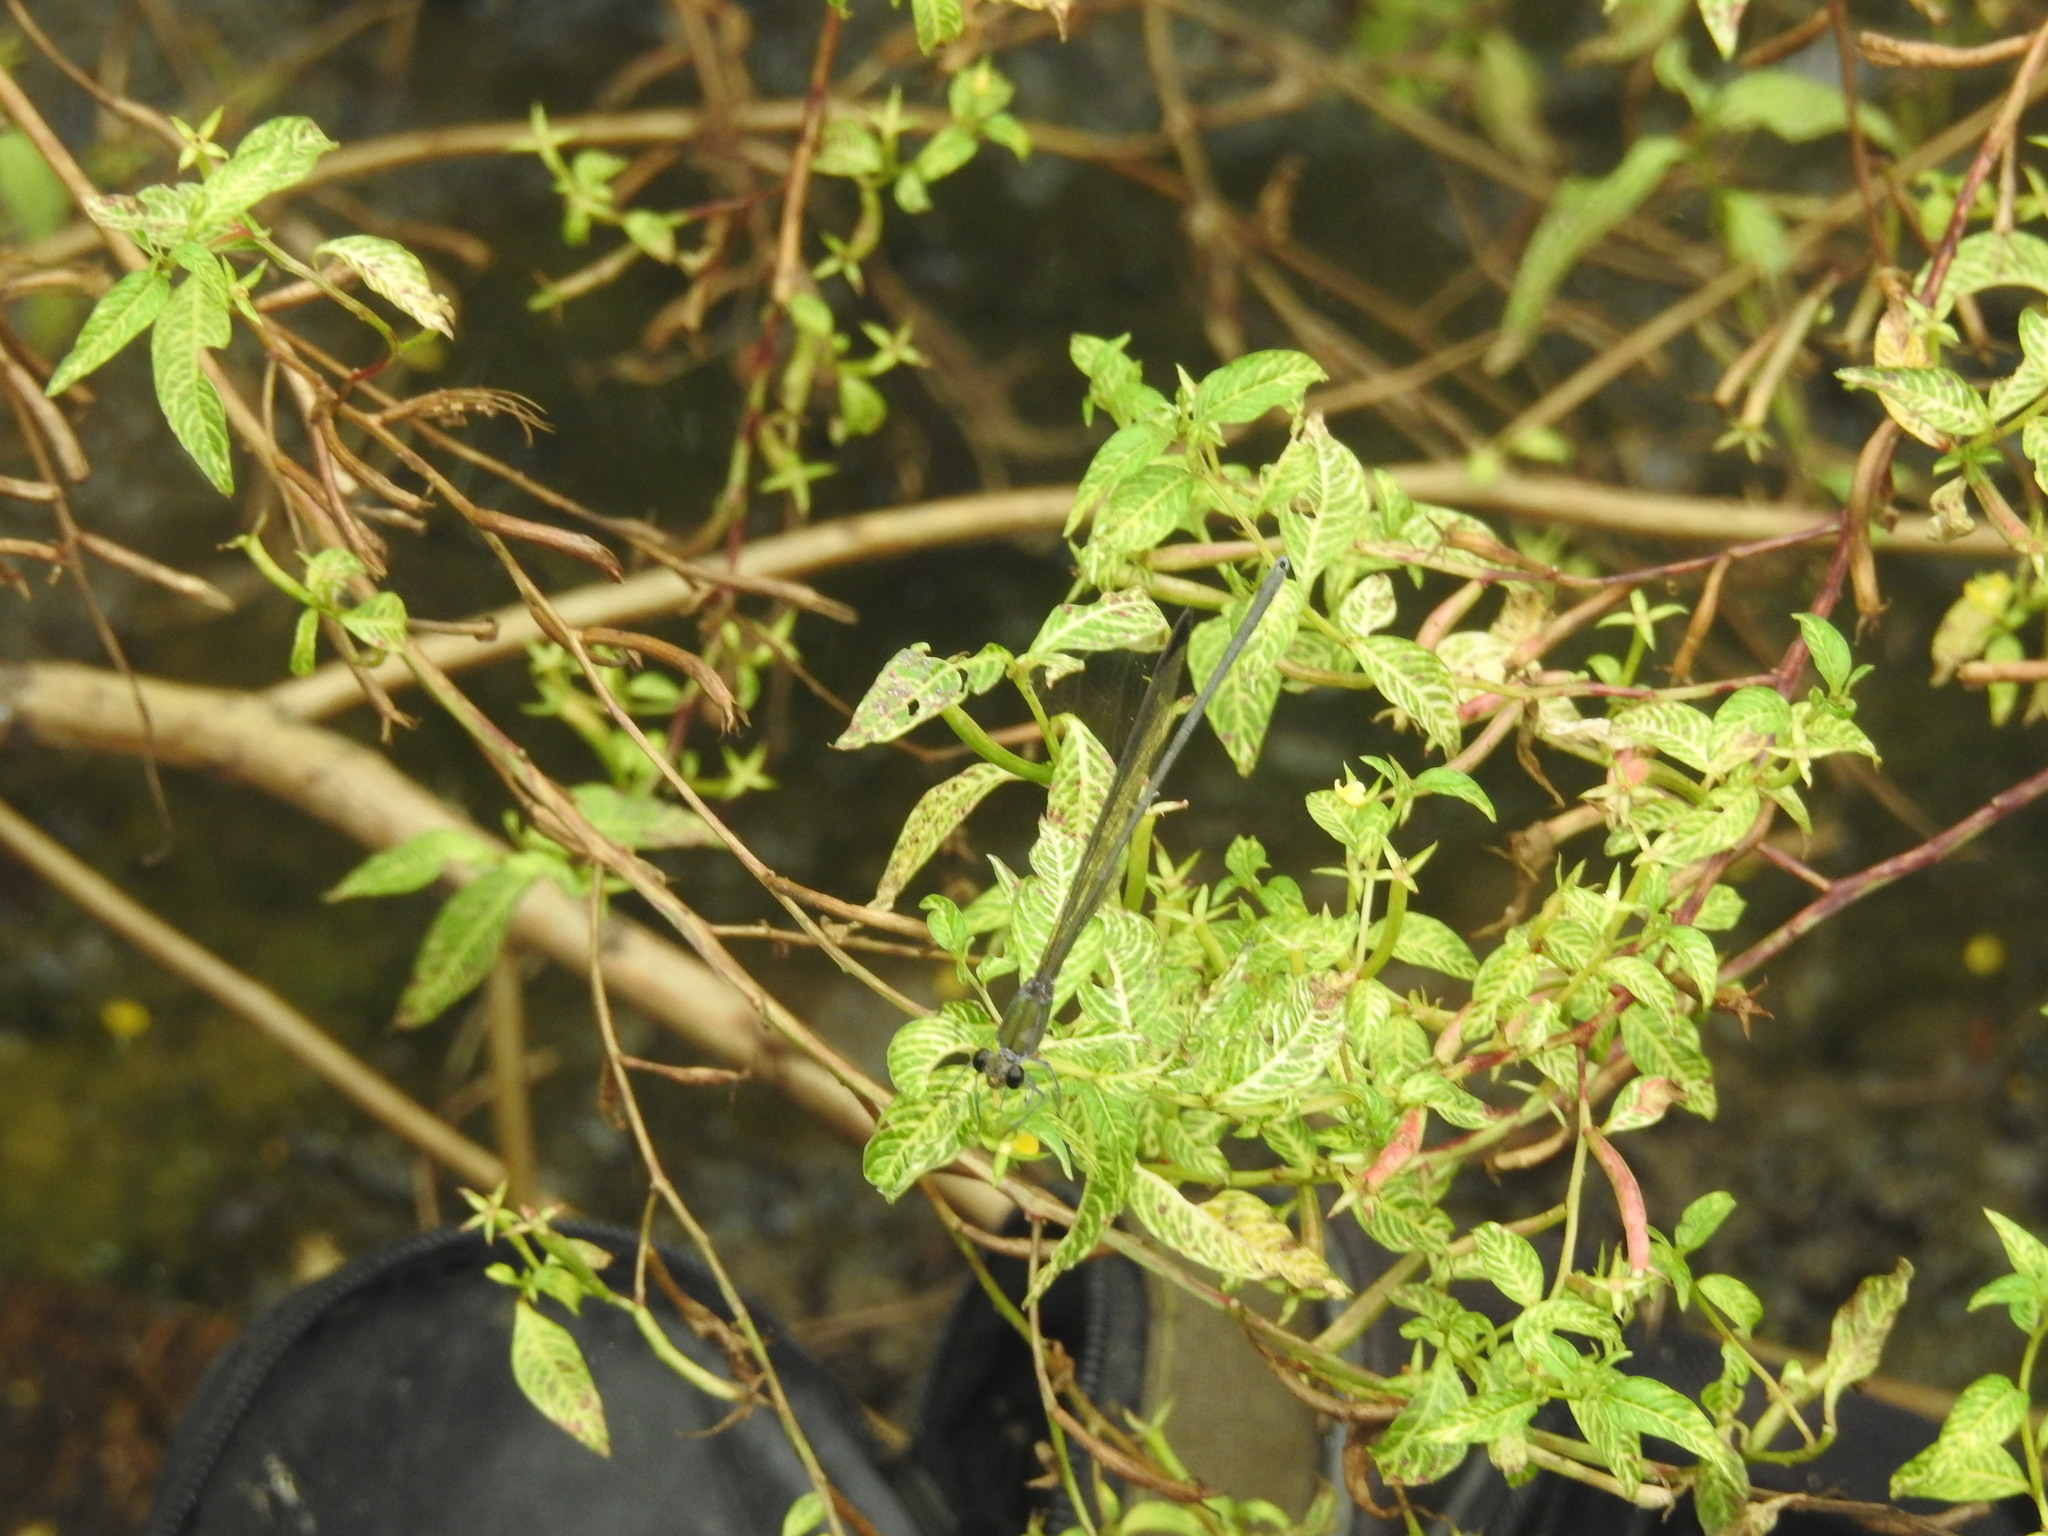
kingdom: Animalia
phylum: Arthropoda
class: Insecta
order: Odonata
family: Calopterygidae
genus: Vestalis
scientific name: Vestalis apicalis
